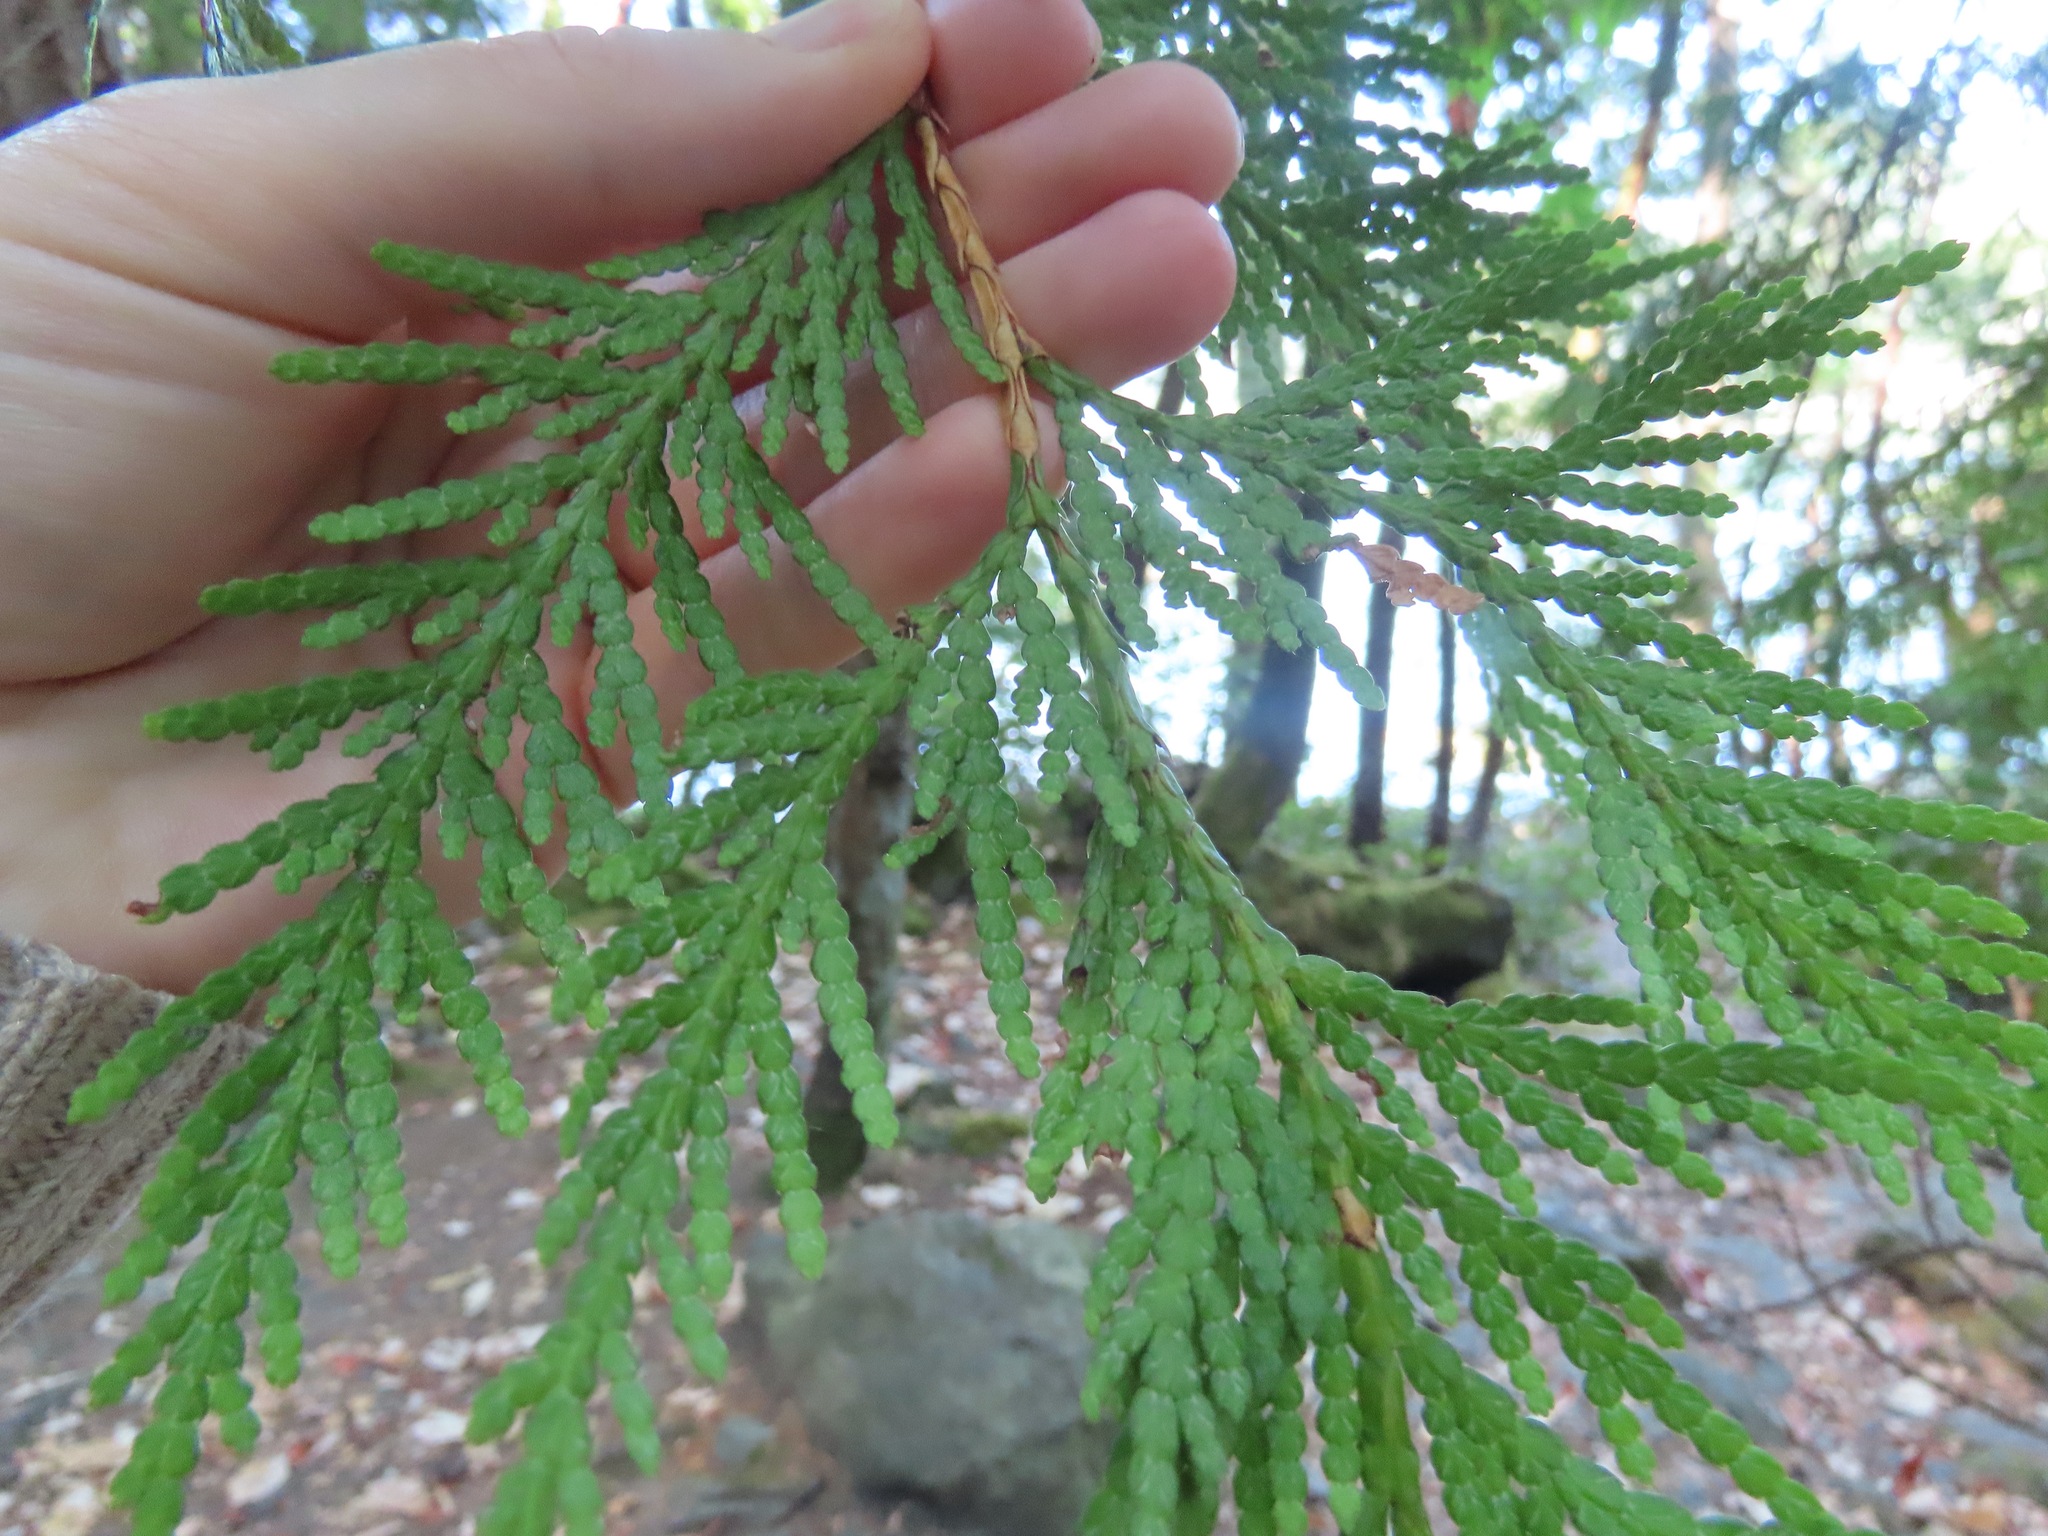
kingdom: Plantae
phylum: Tracheophyta
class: Pinopsida
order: Pinales
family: Cupressaceae
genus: Thuja
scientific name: Thuja plicata
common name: Western red-cedar
